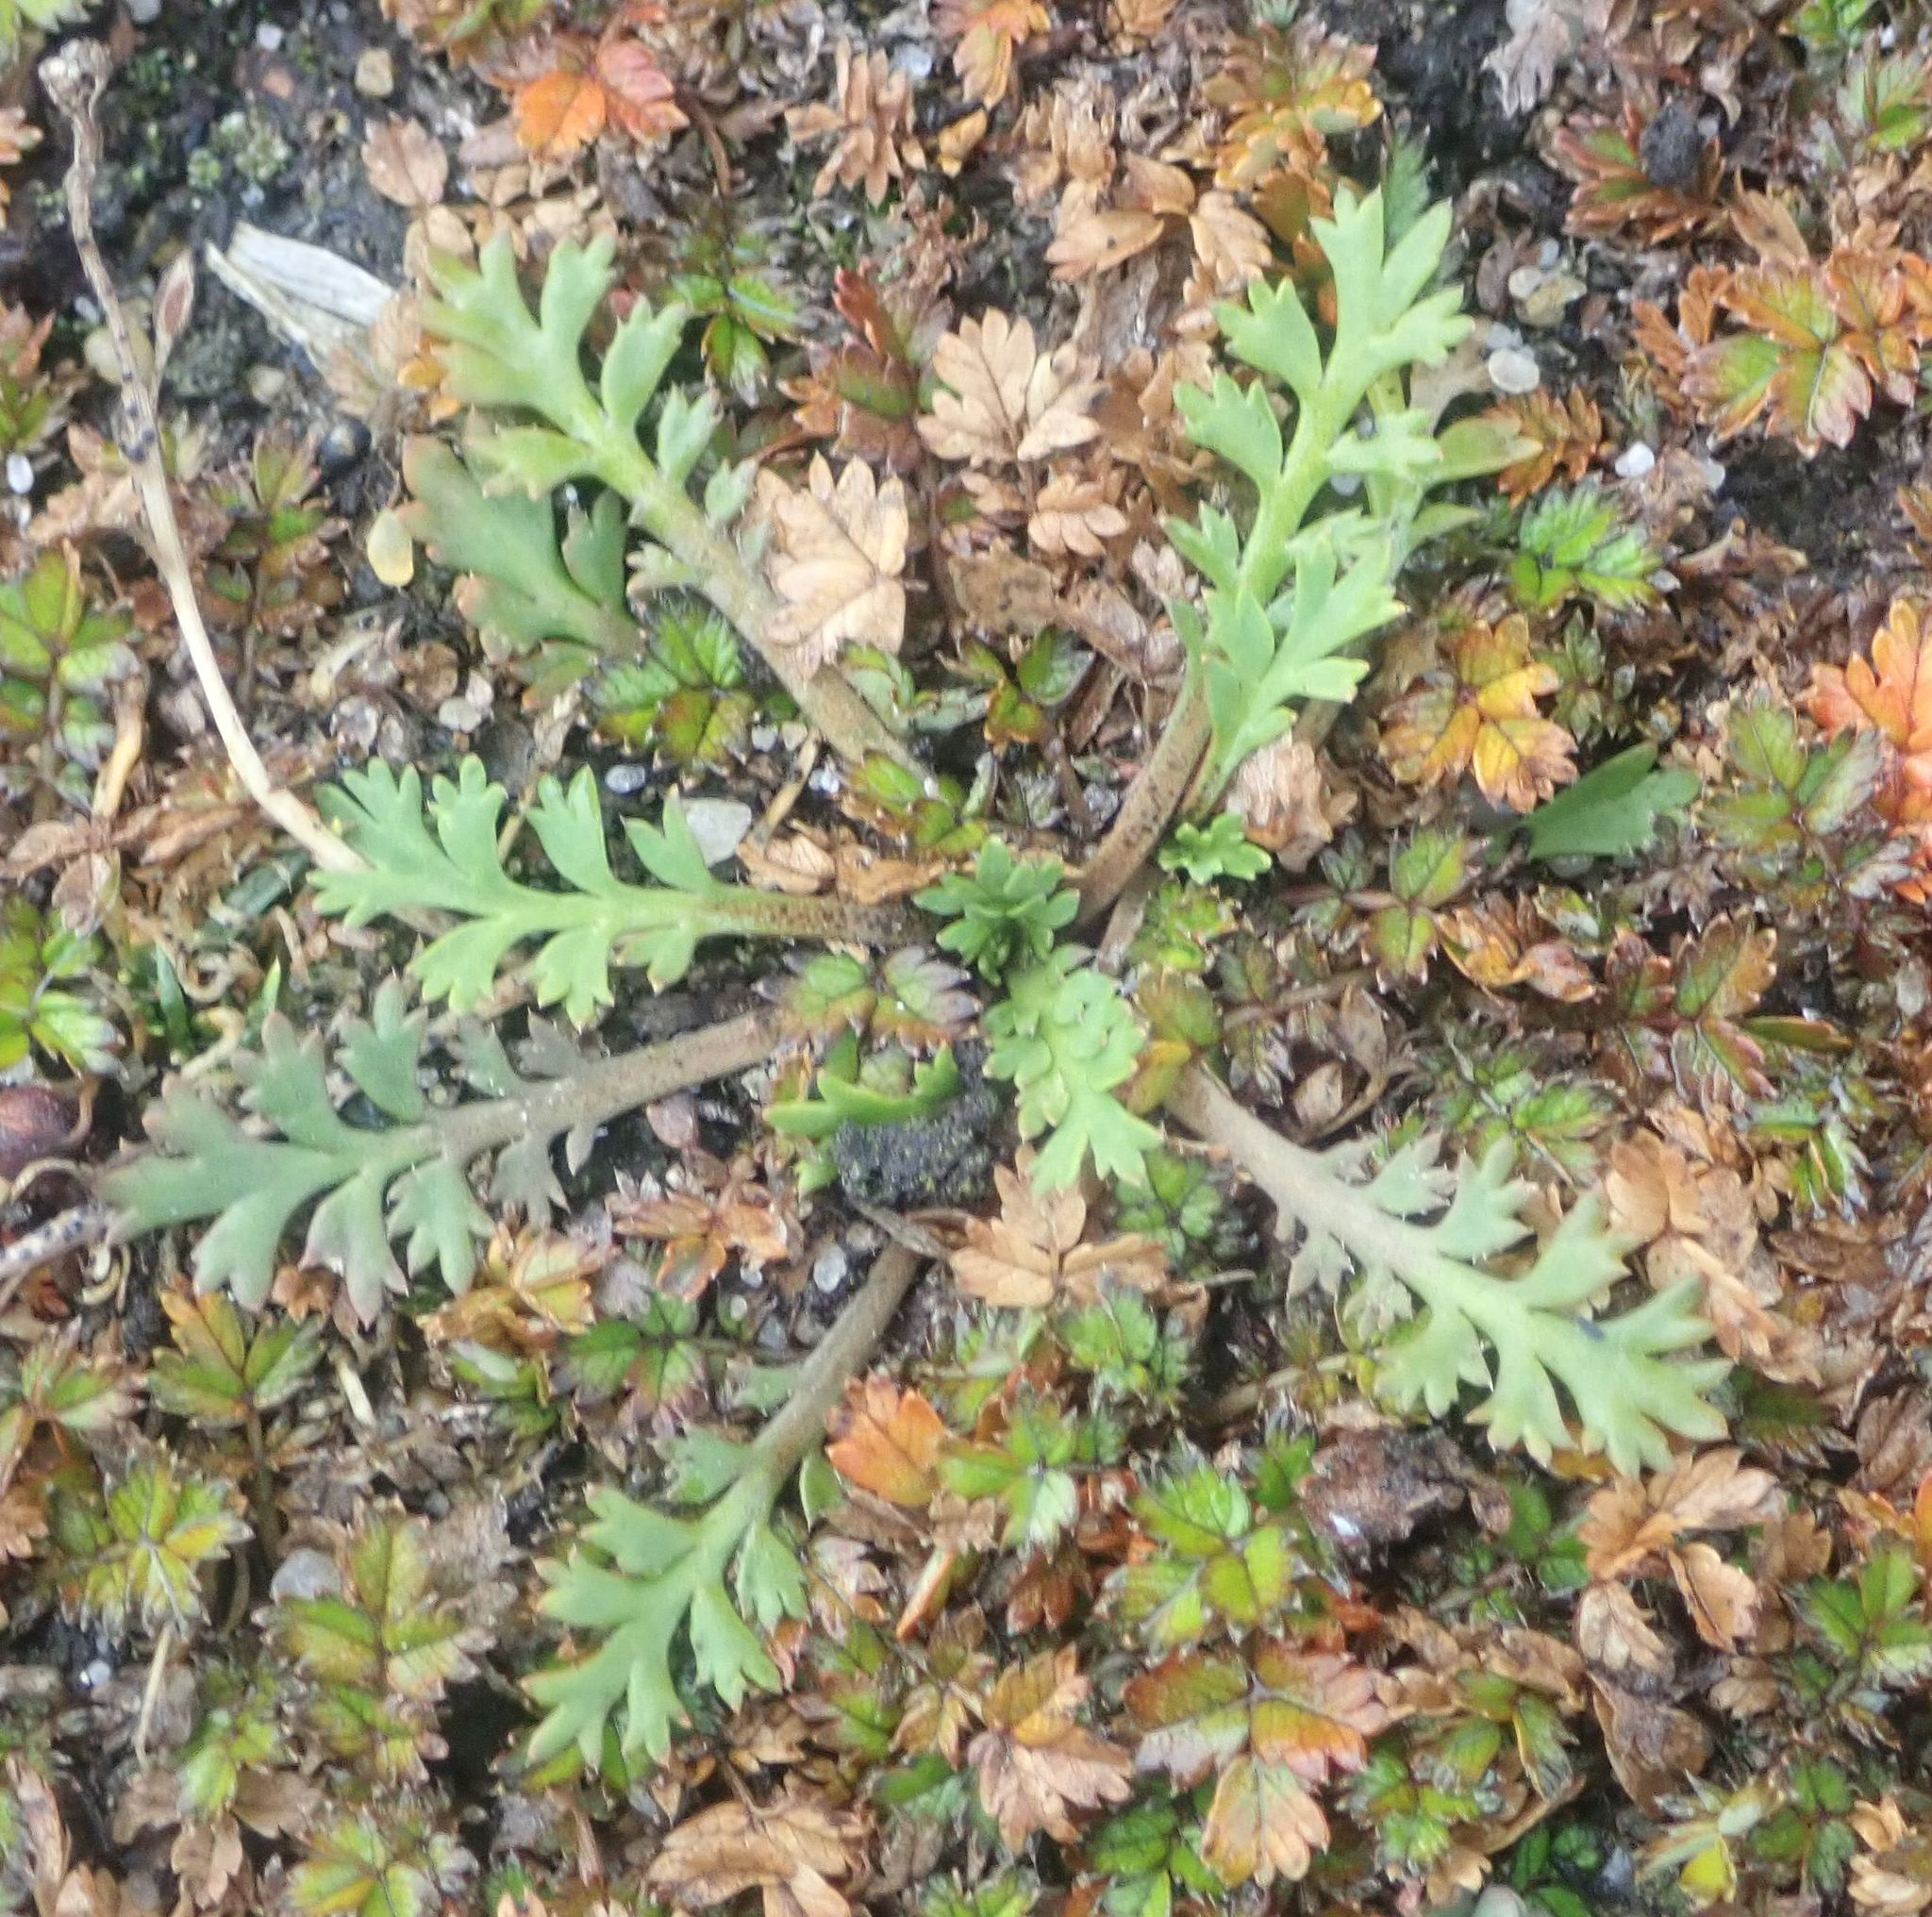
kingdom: Plantae
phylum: Tracheophyta
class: Magnoliopsida
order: Brassicales
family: Brassicaceae
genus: Lepidium
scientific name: Lepidium tenuicaule
